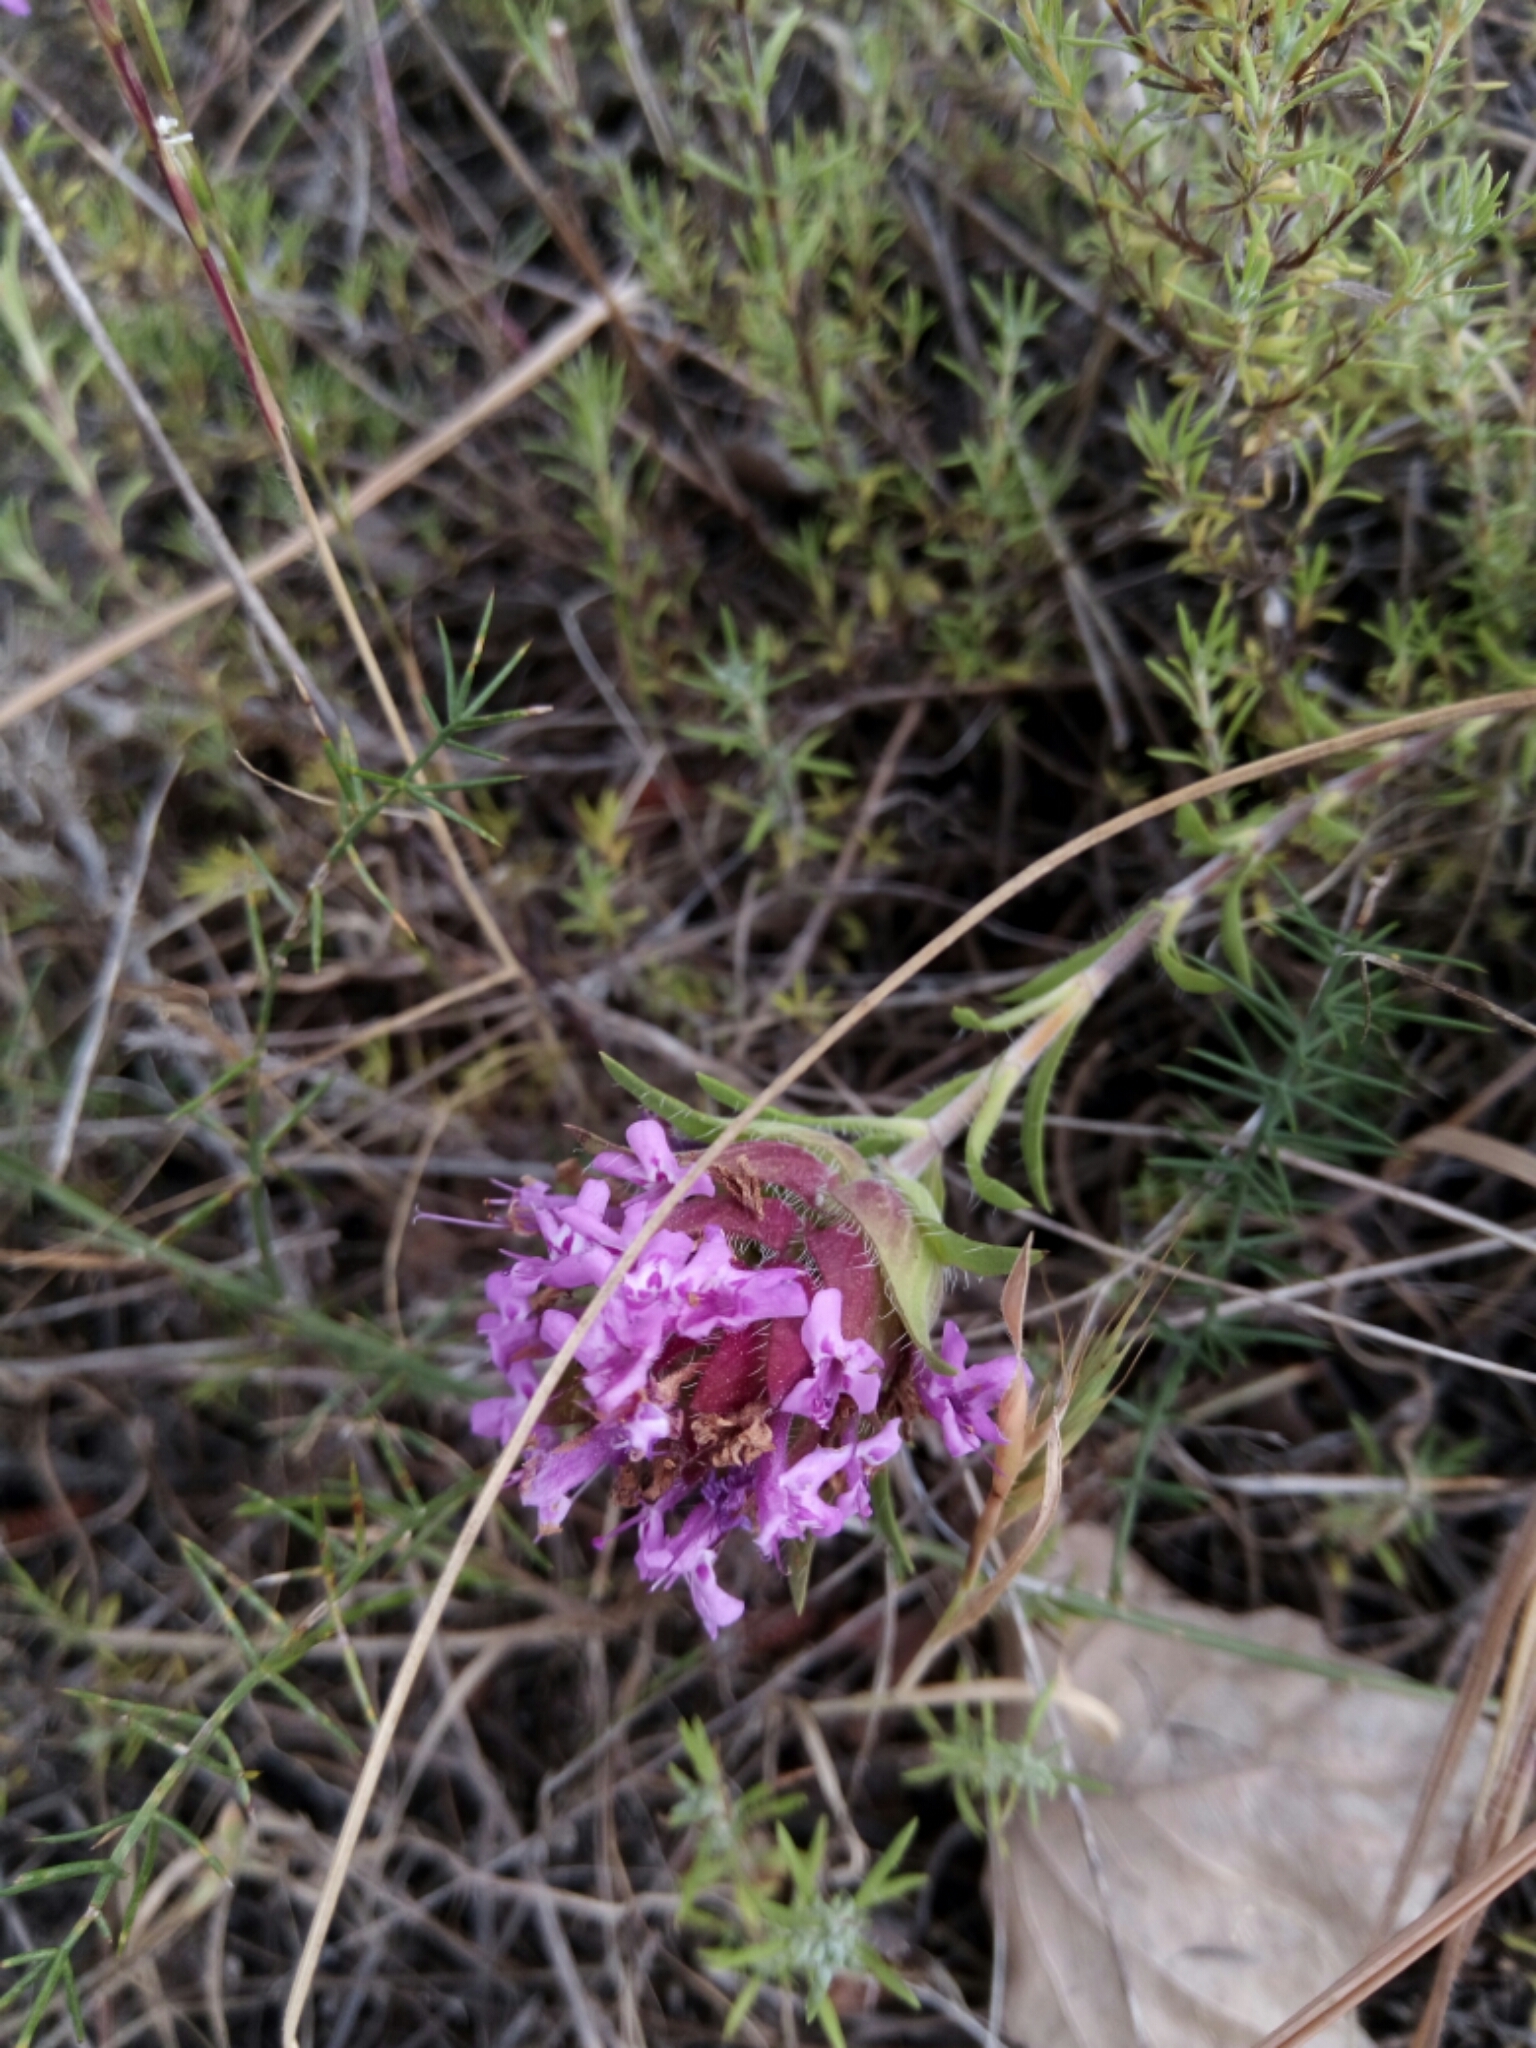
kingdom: Plantae
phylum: Tracheophyta
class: Magnoliopsida
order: Lamiales
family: Lamiaceae
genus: Thymus
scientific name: Thymus lotocephalus
